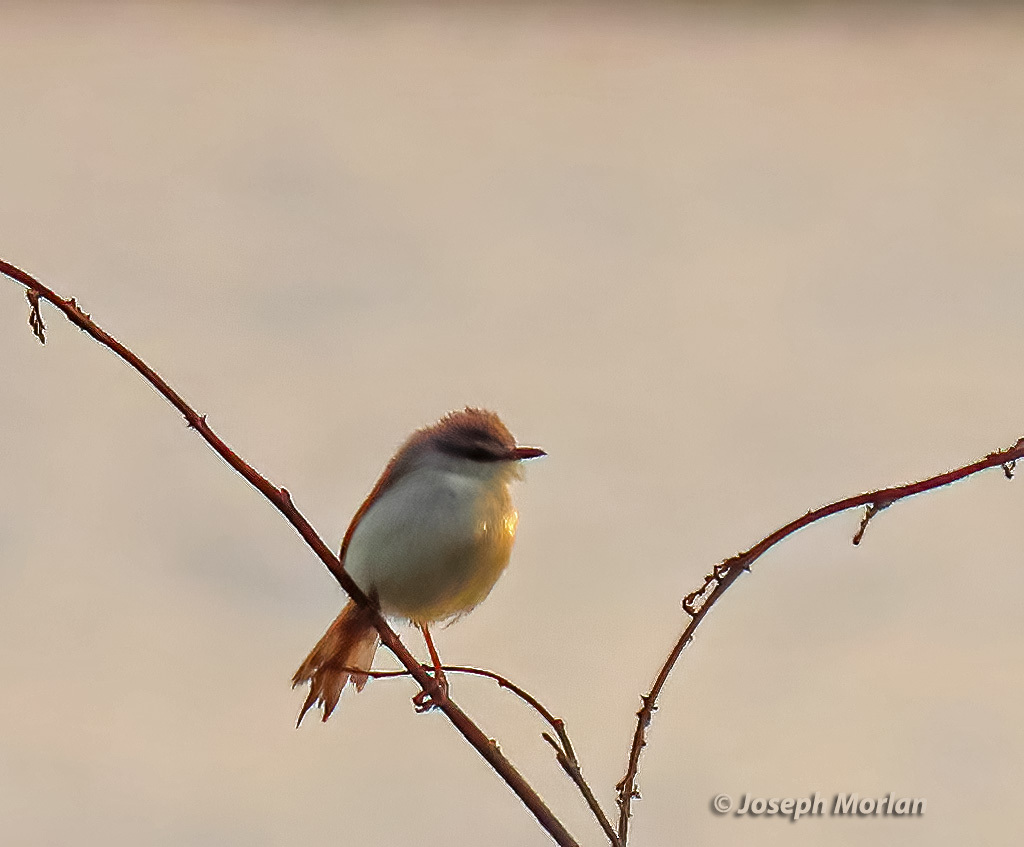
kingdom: Animalia
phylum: Chordata
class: Aves
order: Passeriformes
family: Cisticolidae
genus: Prinia
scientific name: Prinia subflava
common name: Tawny-flanked prinia
